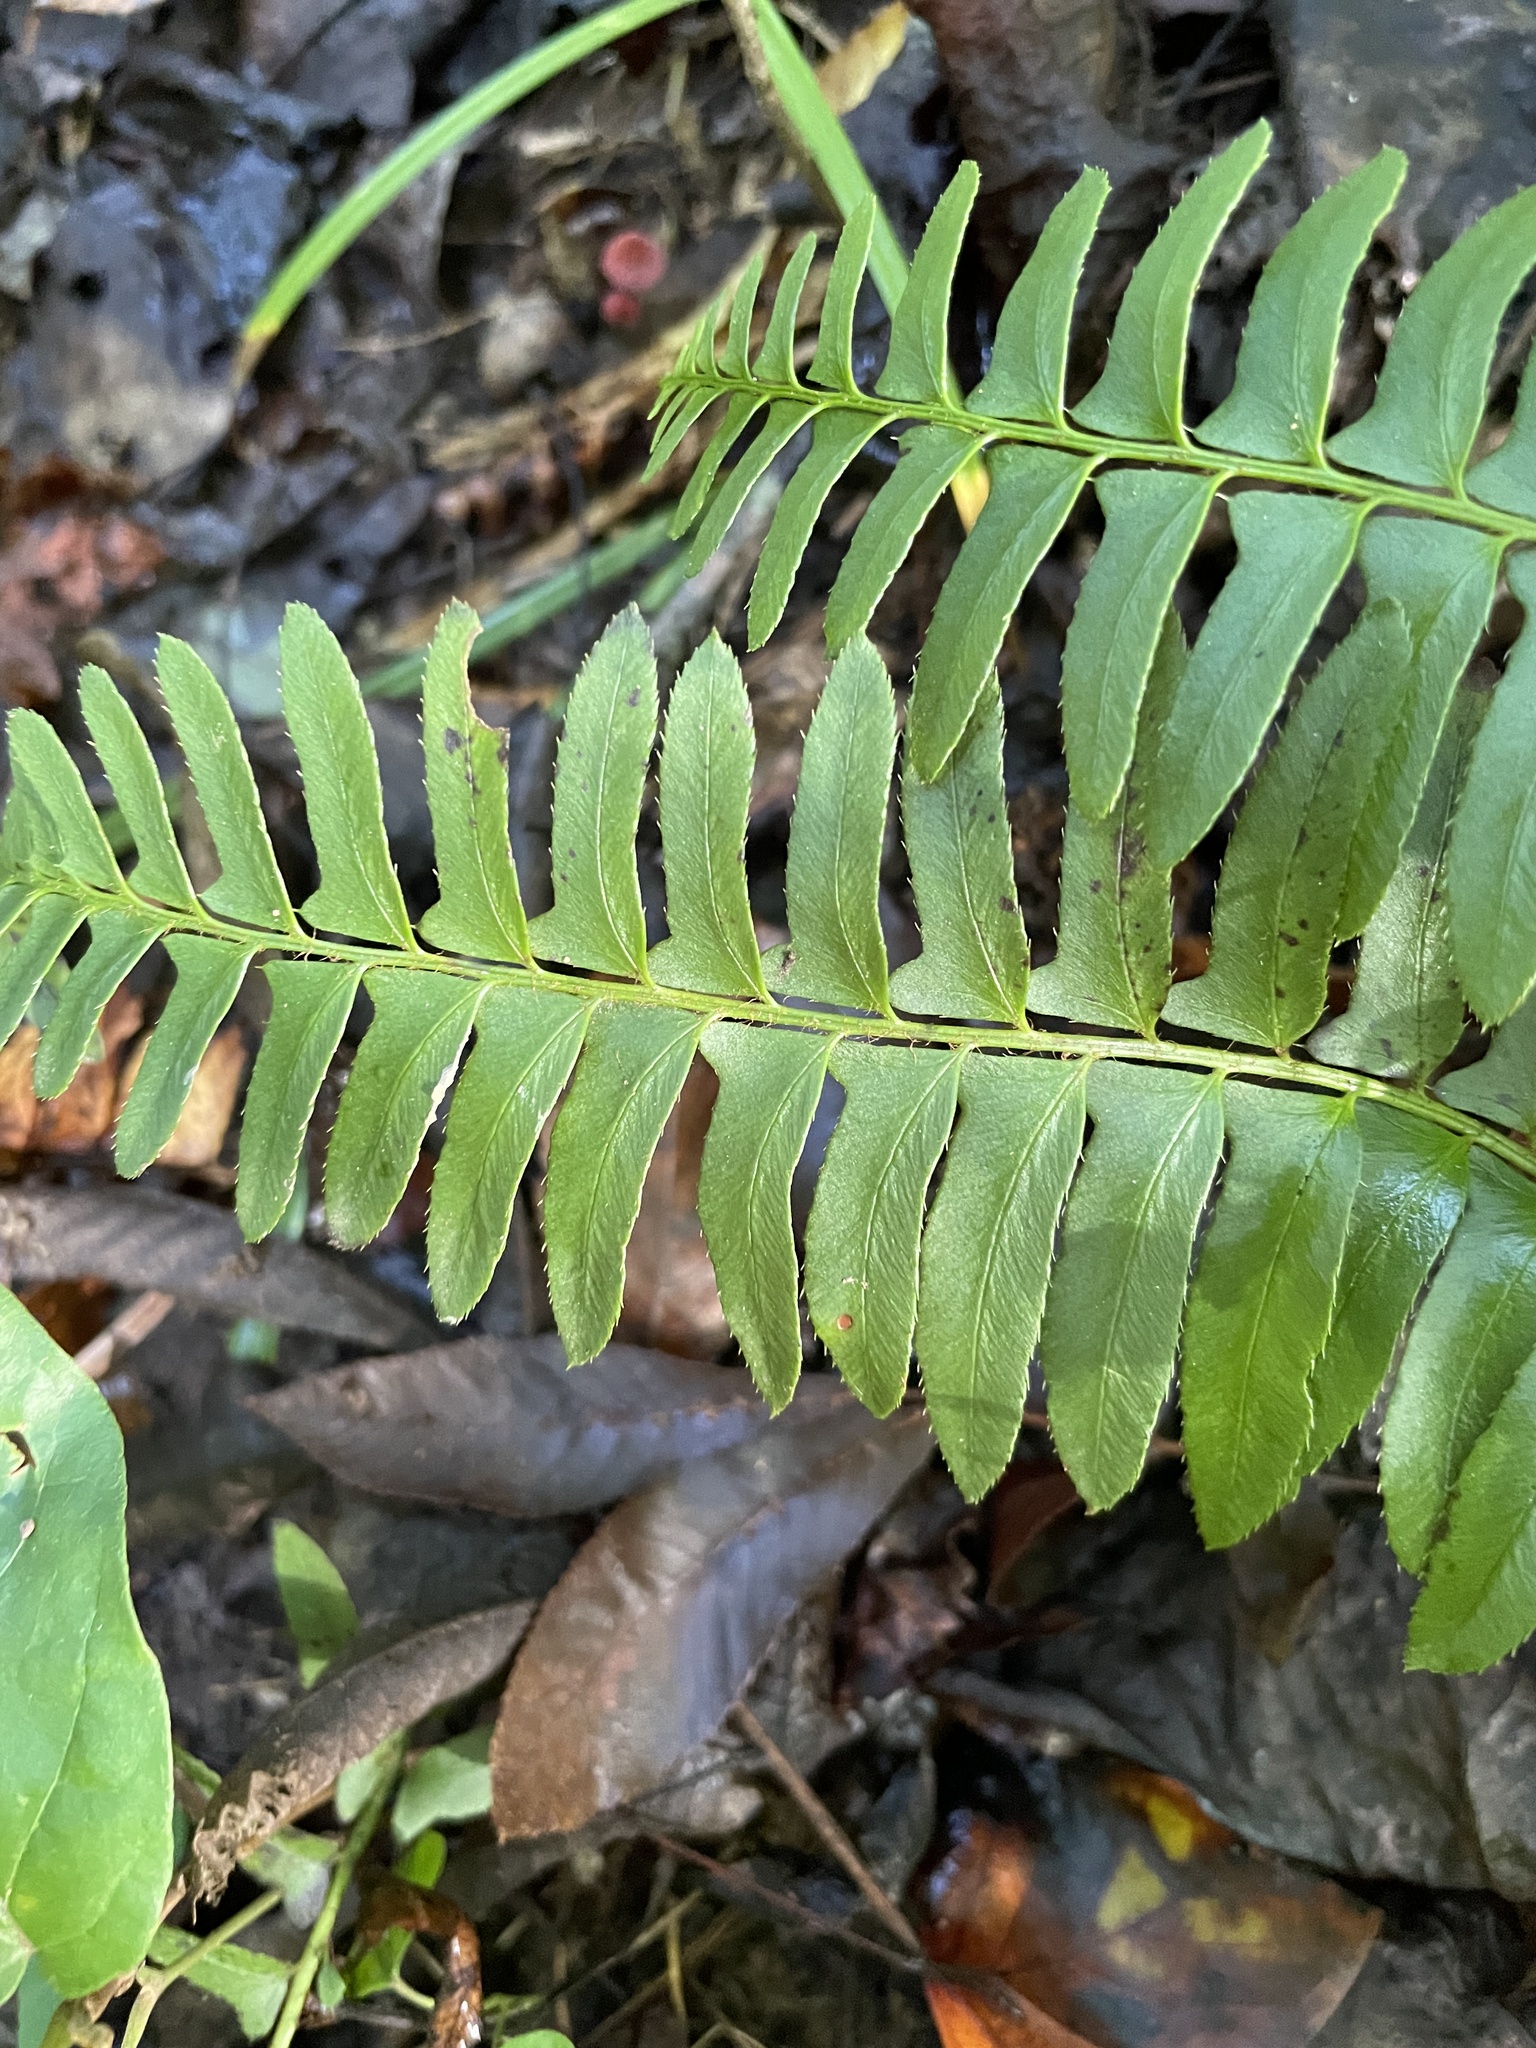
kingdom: Plantae
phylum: Tracheophyta
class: Polypodiopsida
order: Polypodiales
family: Dryopteridaceae
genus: Polystichum
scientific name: Polystichum acrostichoides
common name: Christmas fern
